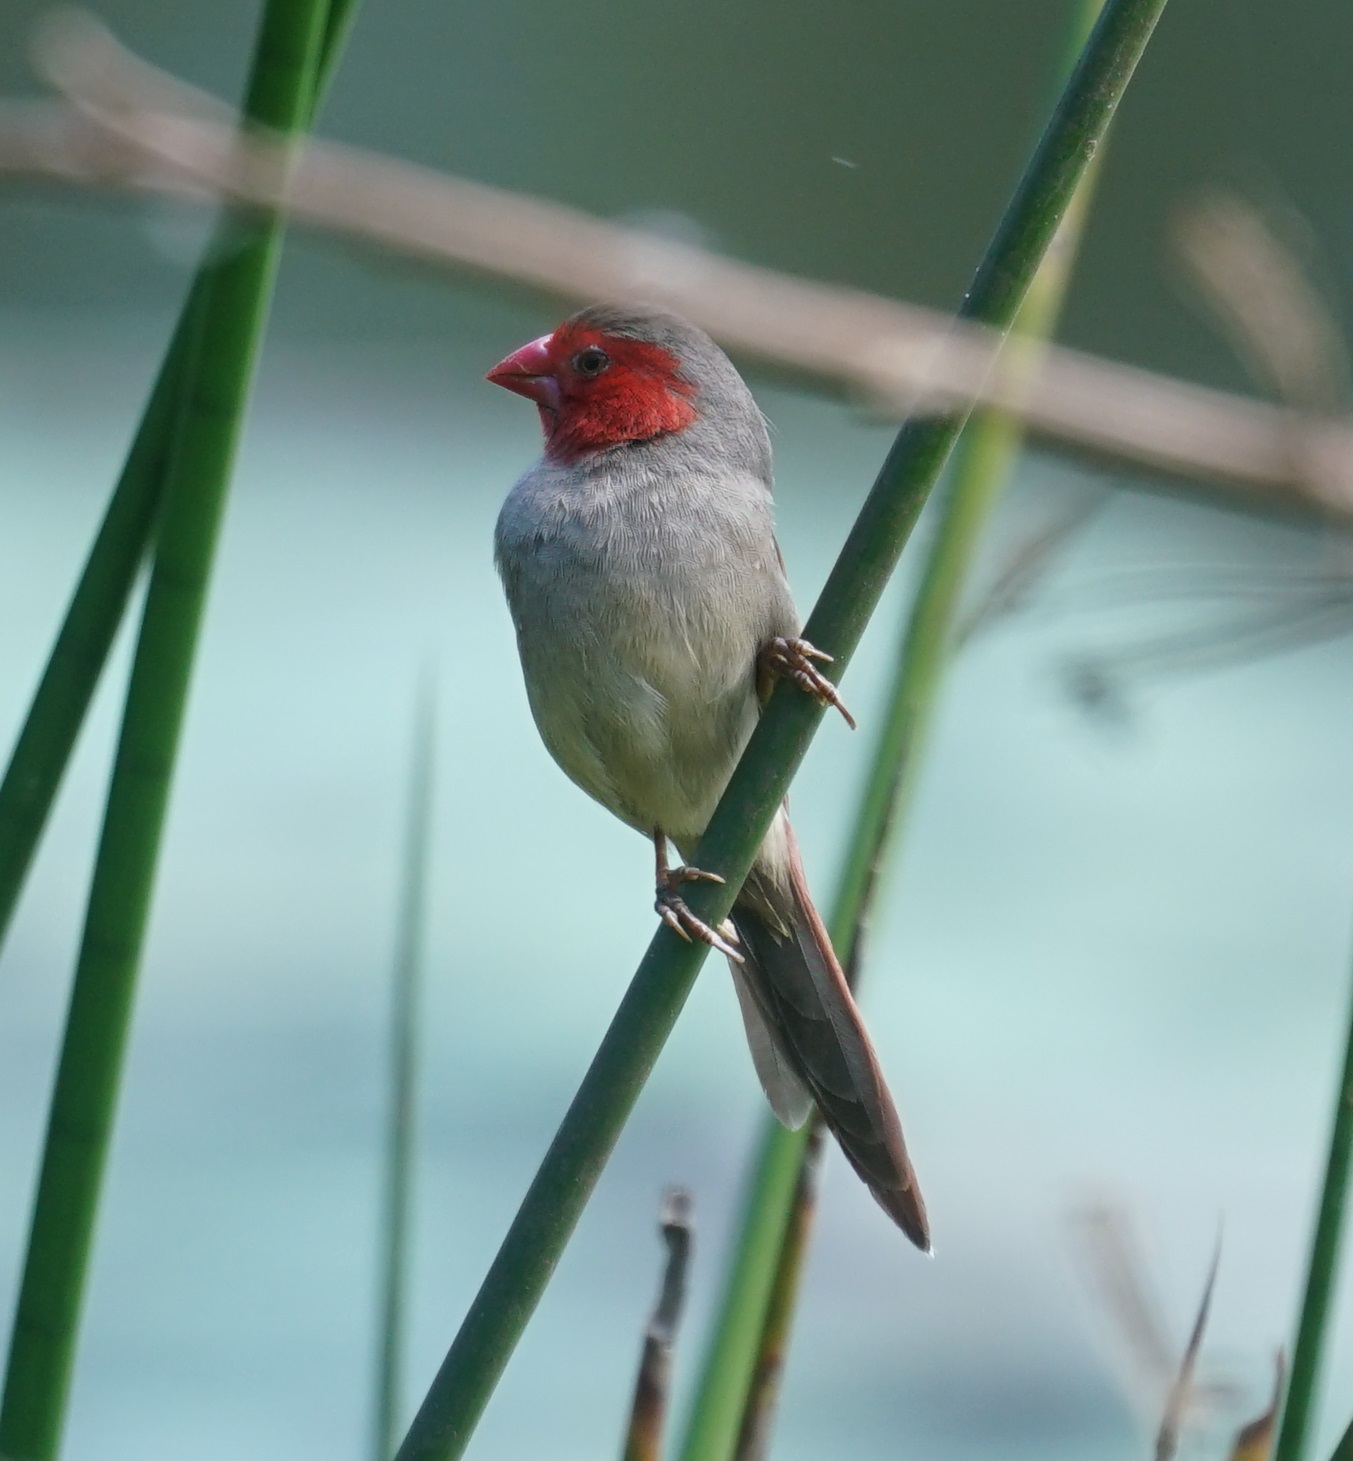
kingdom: Animalia
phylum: Chordata
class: Aves
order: Passeriformes
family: Estrildidae
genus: Neochmia
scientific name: Neochmia phaeton
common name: Crimson finch
